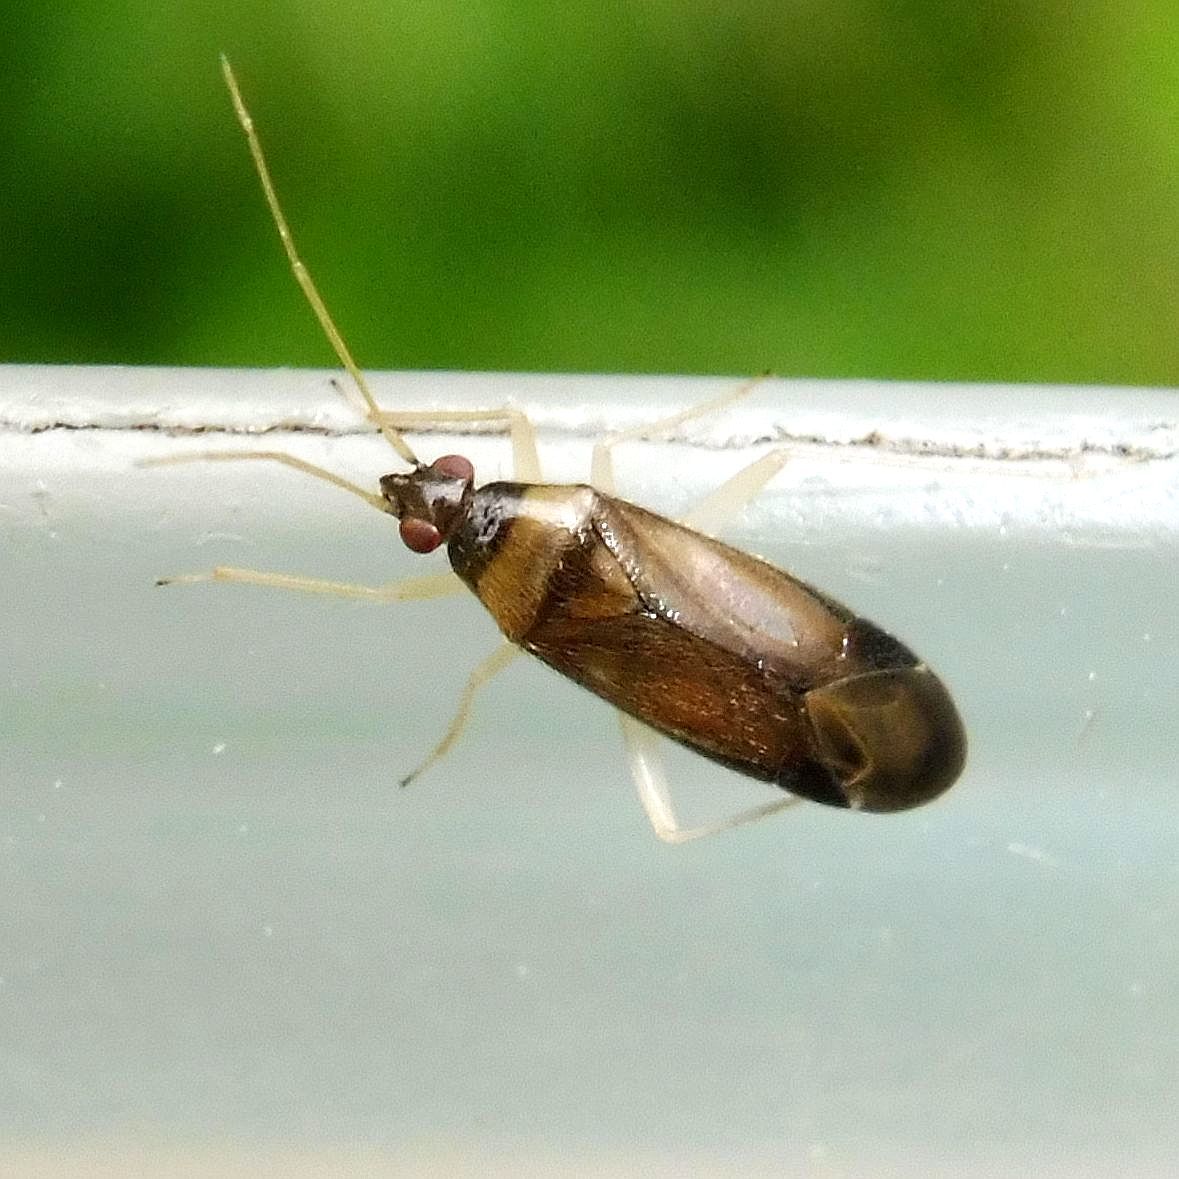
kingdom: Animalia
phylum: Arthropoda
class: Insecta
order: Hemiptera
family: Miridae
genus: Phylus
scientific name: Phylus coryli
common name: Plant bug
